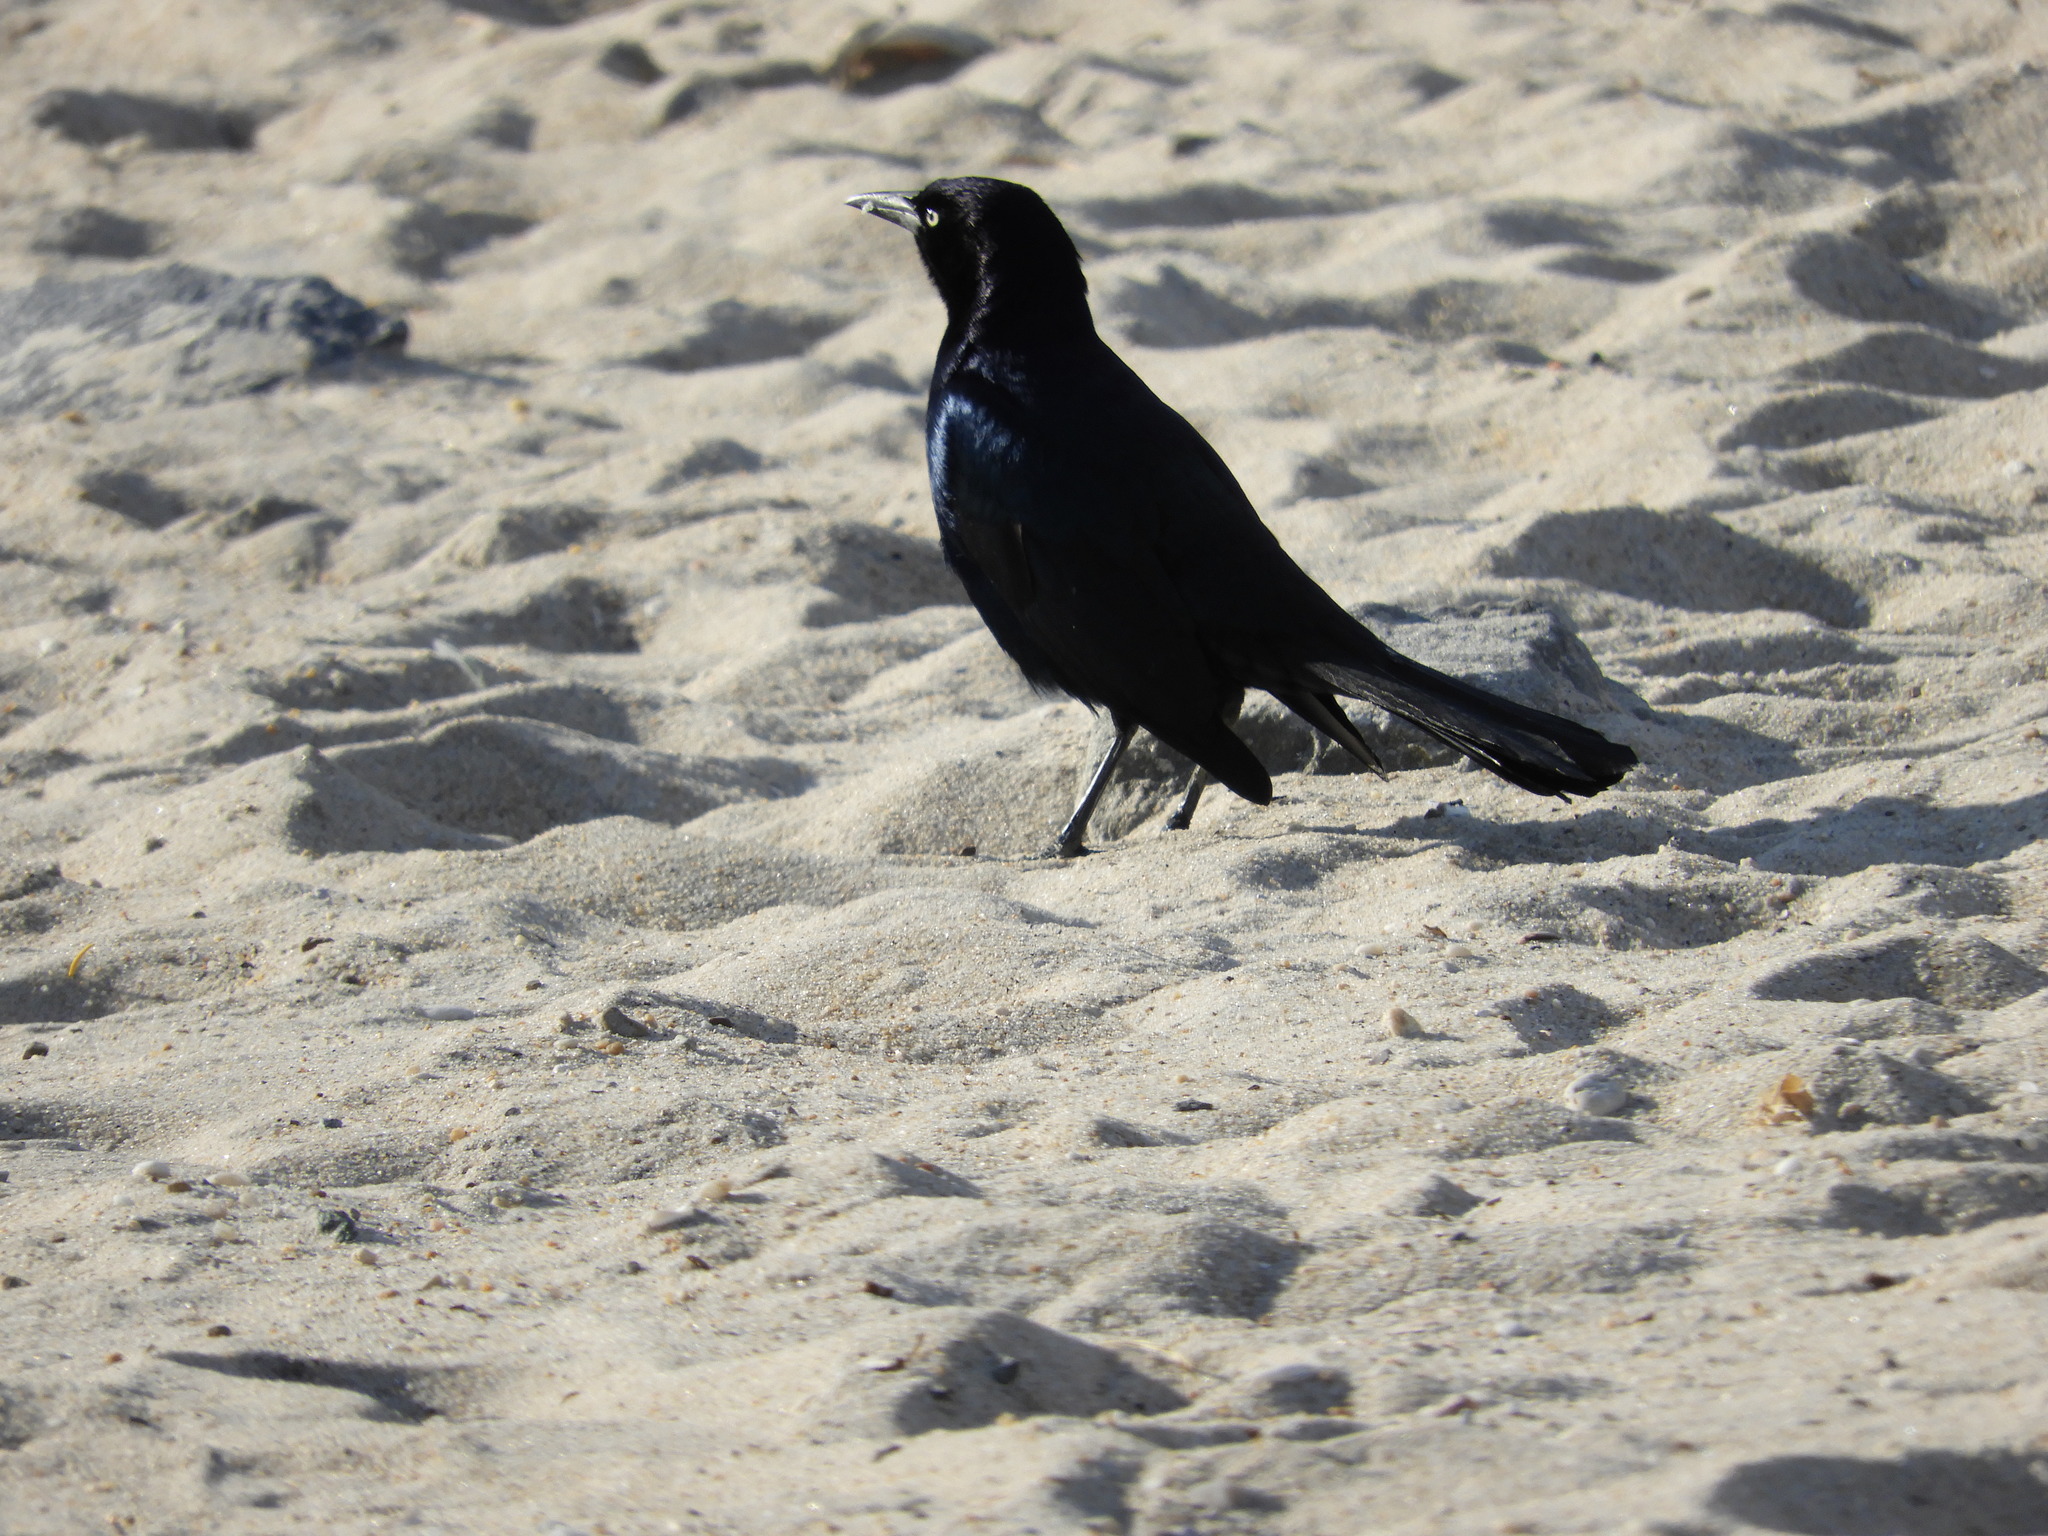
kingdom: Animalia
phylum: Chordata
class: Aves
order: Passeriformes
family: Icteridae
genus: Quiscalus
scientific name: Quiscalus quiscula
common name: Common grackle
